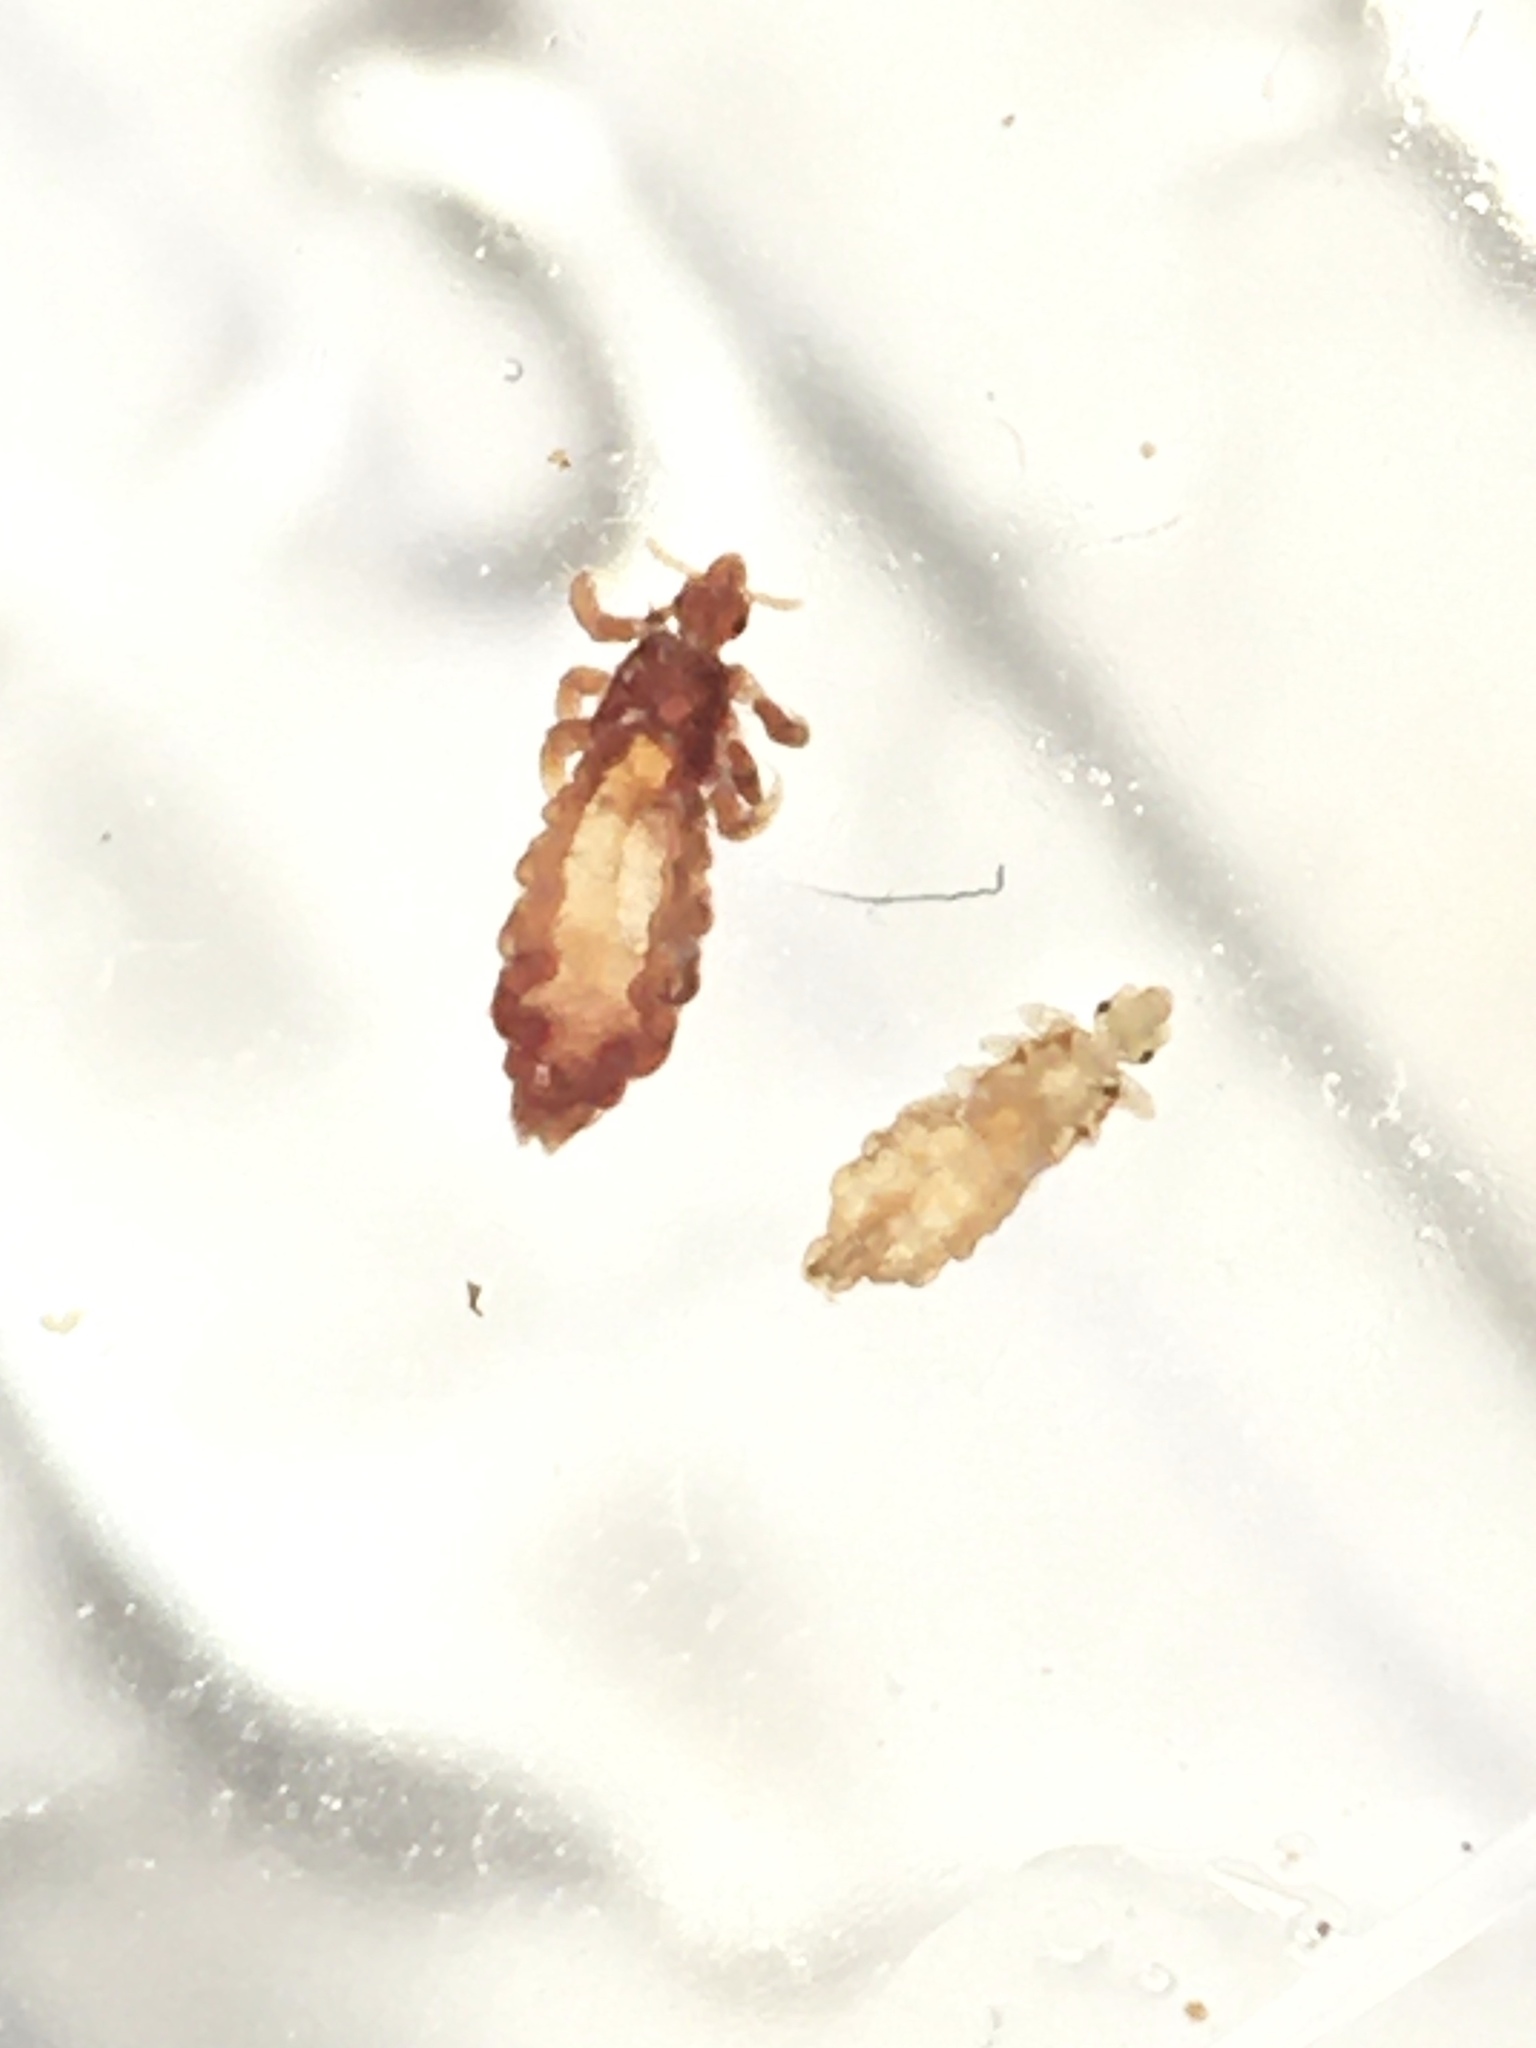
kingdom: Animalia
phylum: Arthropoda
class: Insecta
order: Psocodea
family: Pediculidae
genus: Pediculus
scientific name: Pediculus humanus
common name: Body louse
